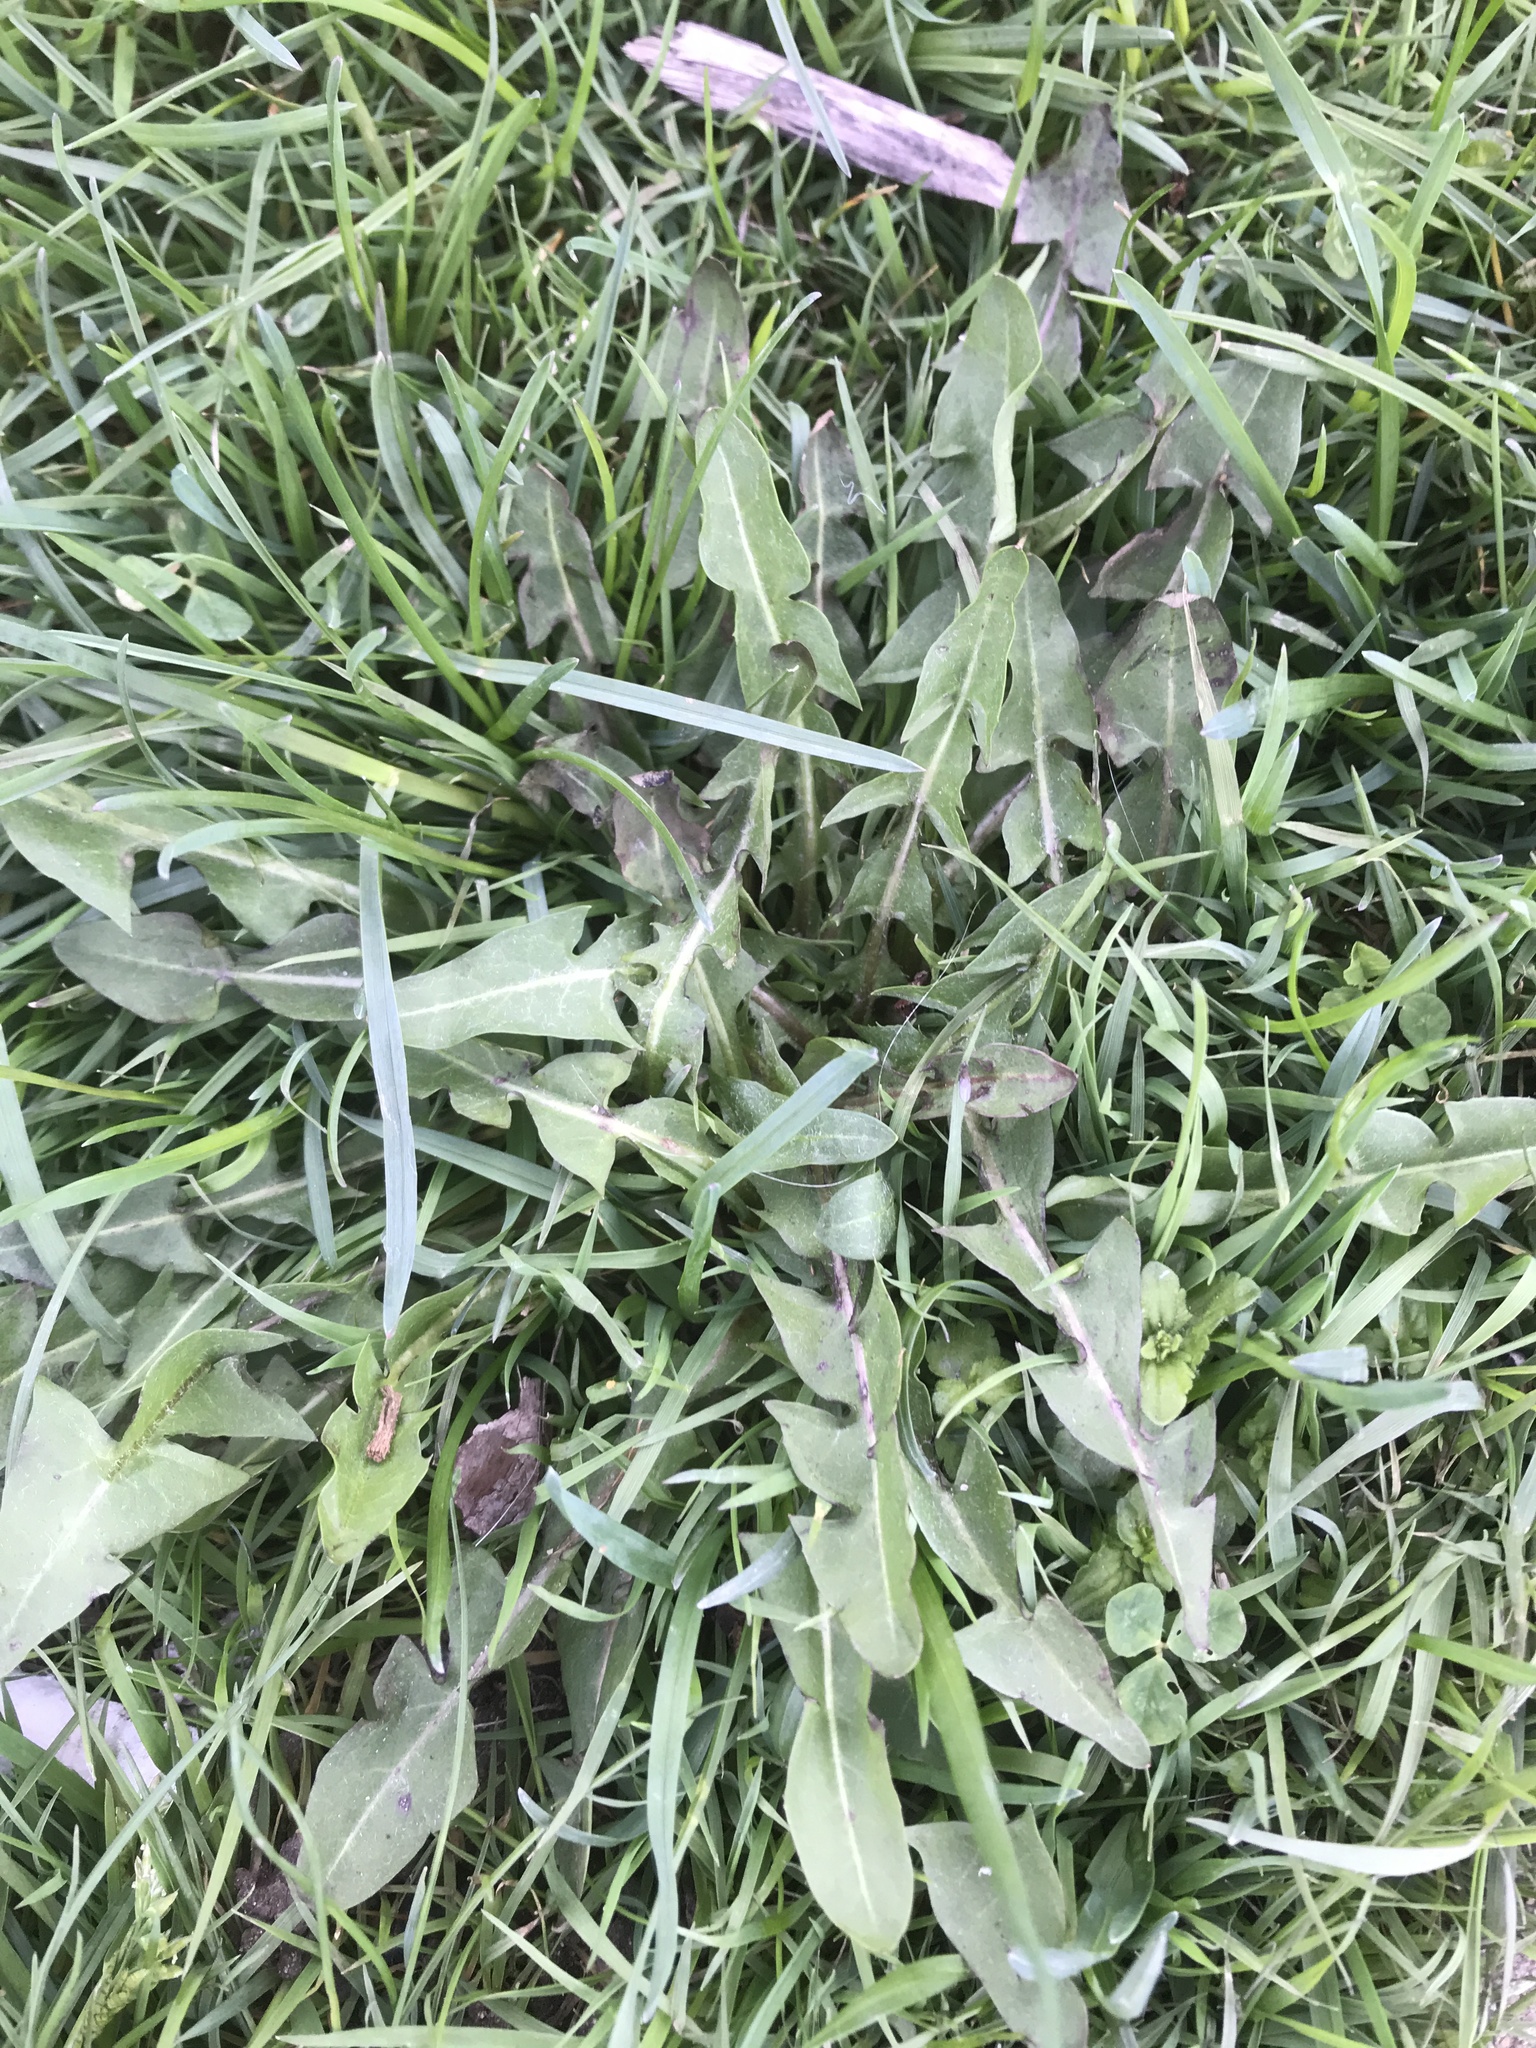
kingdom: Plantae
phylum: Tracheophyta
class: Magnoliopsida
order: Asterales
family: Asteraceae
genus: Taraxacum
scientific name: Taraxacum officinale
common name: Common dandelion
